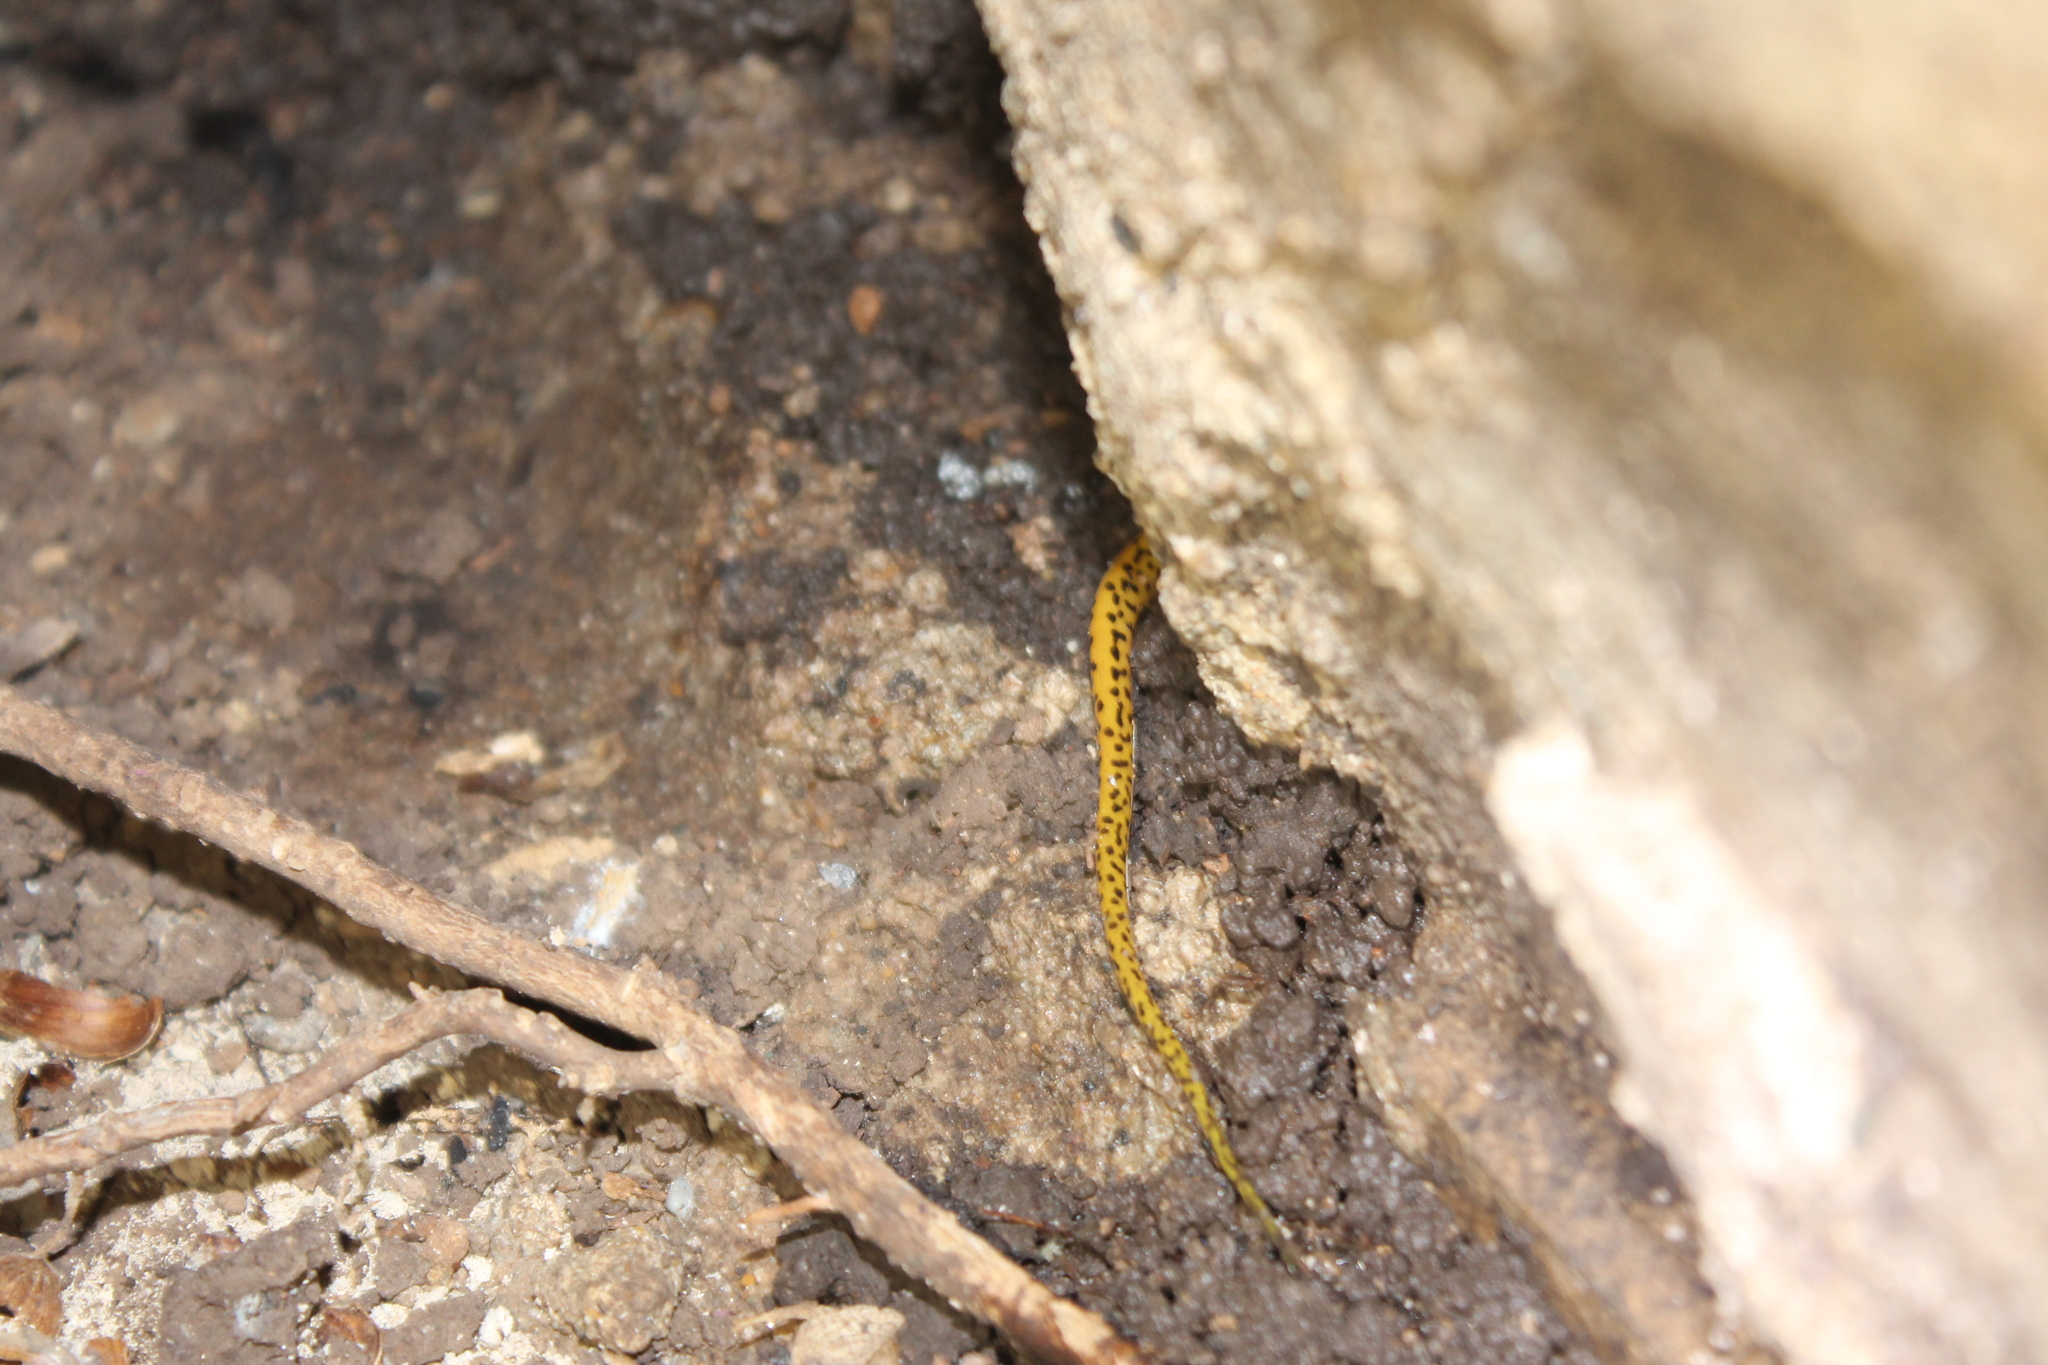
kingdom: Animalia
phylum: Chordata
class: Amphibia
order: Caudata
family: Plethodontidae
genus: Eurycea
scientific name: Eurycea lucifuga
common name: Cave salamander
